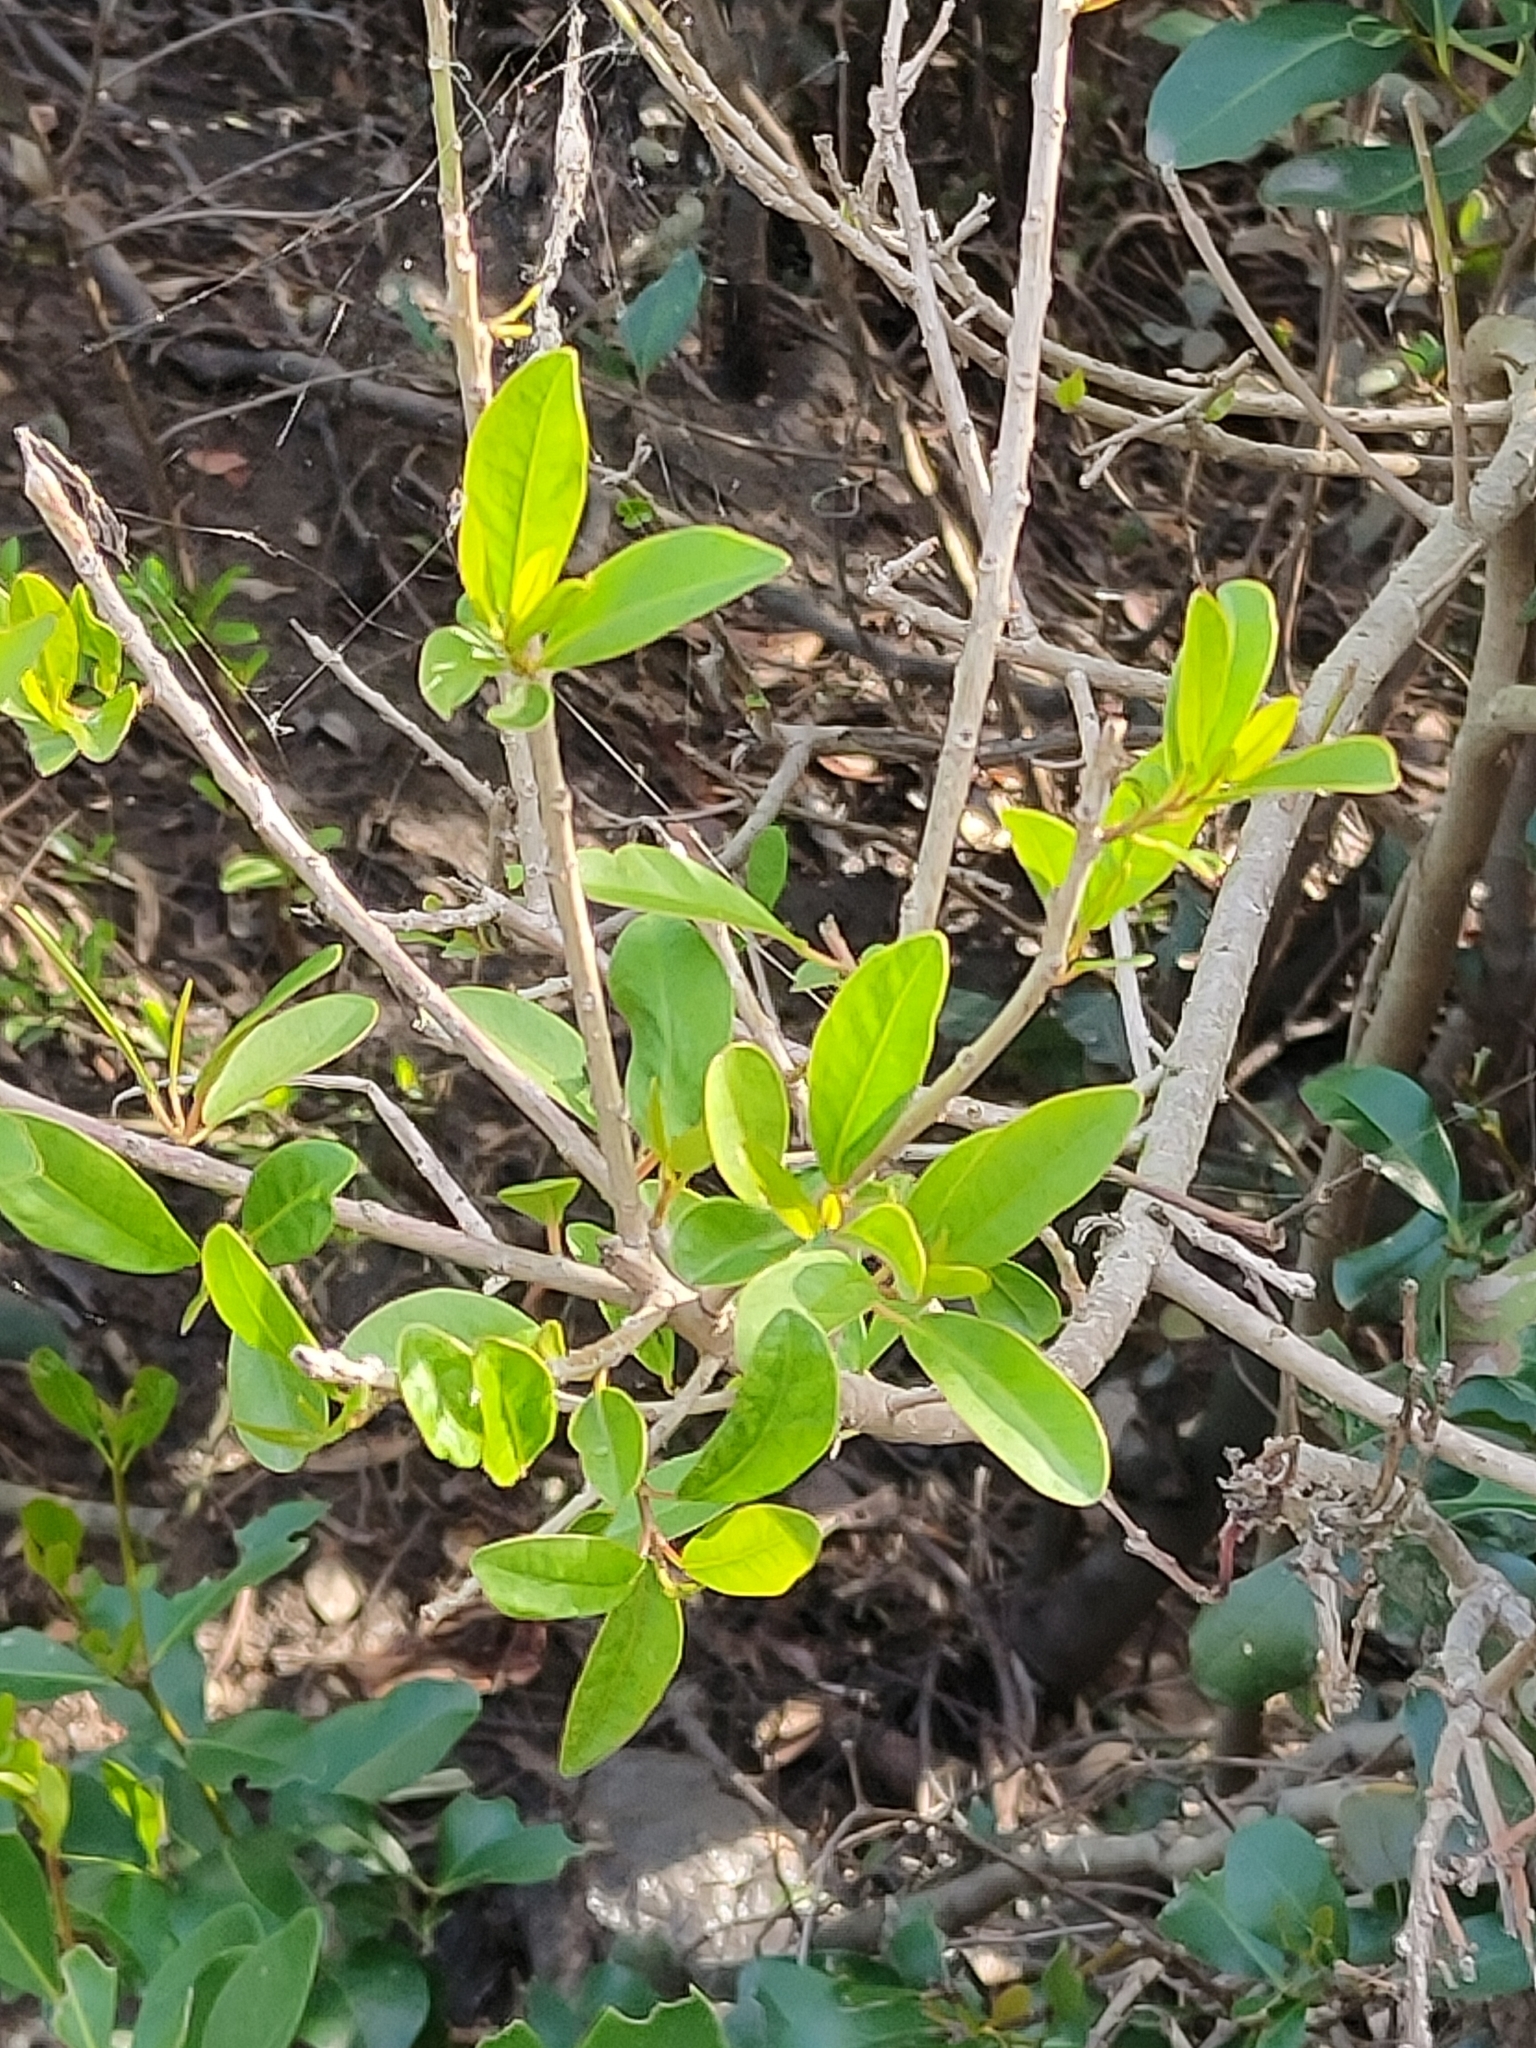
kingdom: Plantae
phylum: Tracheophyta
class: Magnoliopsida
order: Malpighiales
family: Euphorbiaceae
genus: Excoecaria
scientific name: Excoecaria agallocha
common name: River poisontree
